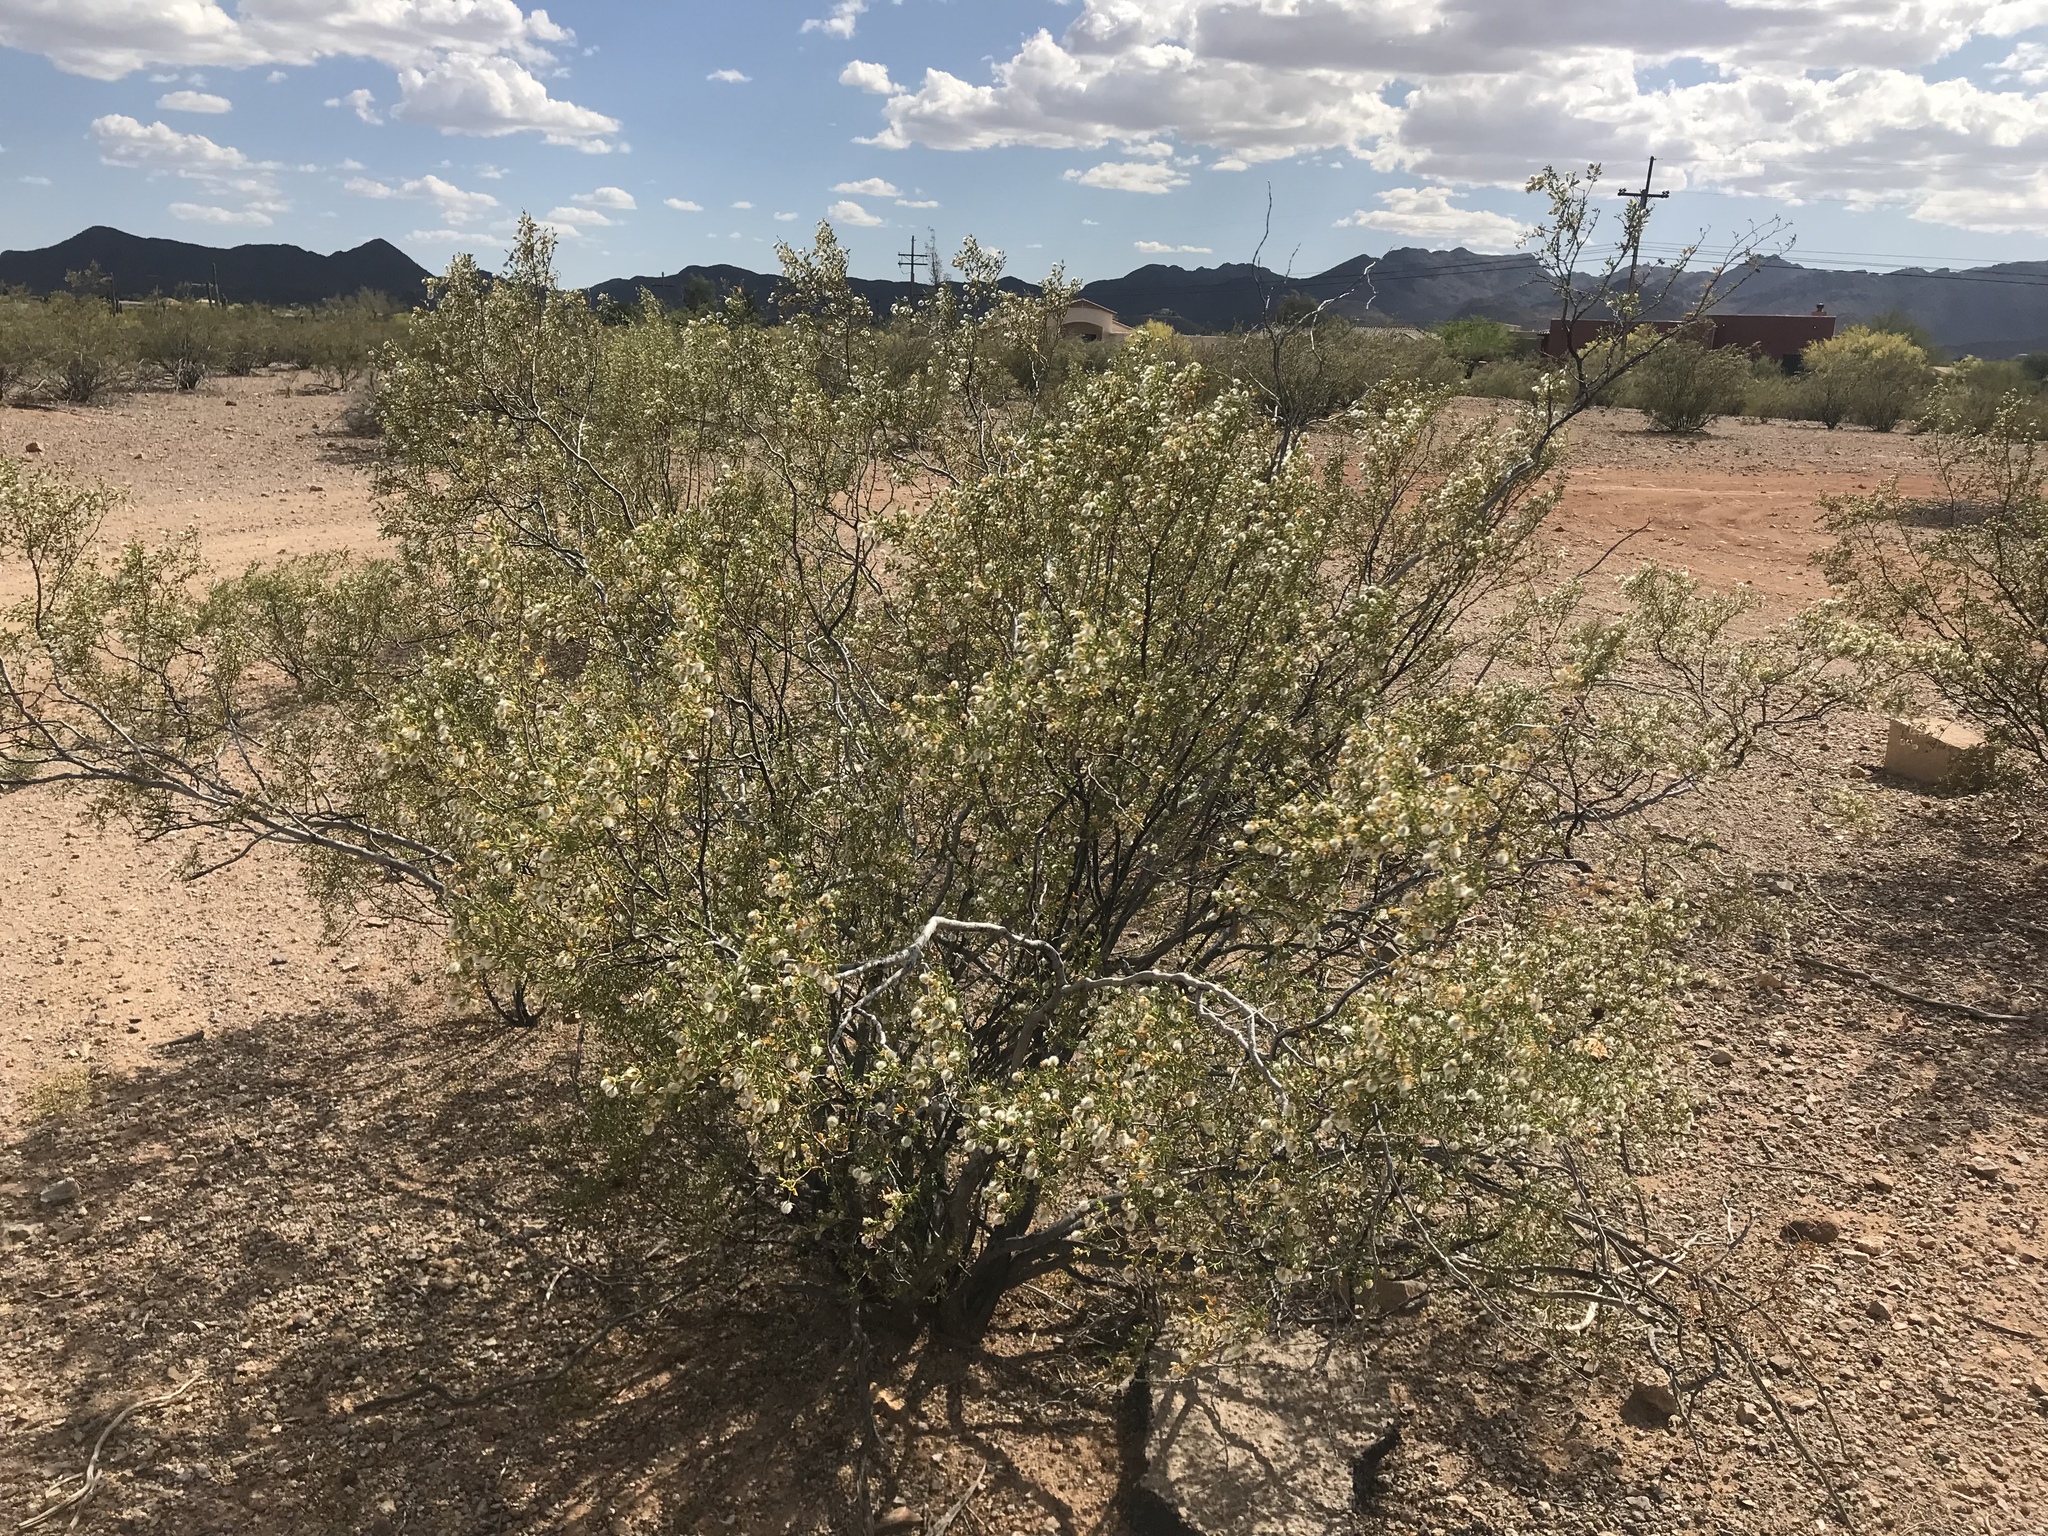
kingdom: Plantae
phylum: Tracheophyta
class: Magnoliopsida
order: Zygophyllales
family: Zygophyllaceae
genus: Larrea
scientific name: Larrea tridentata
